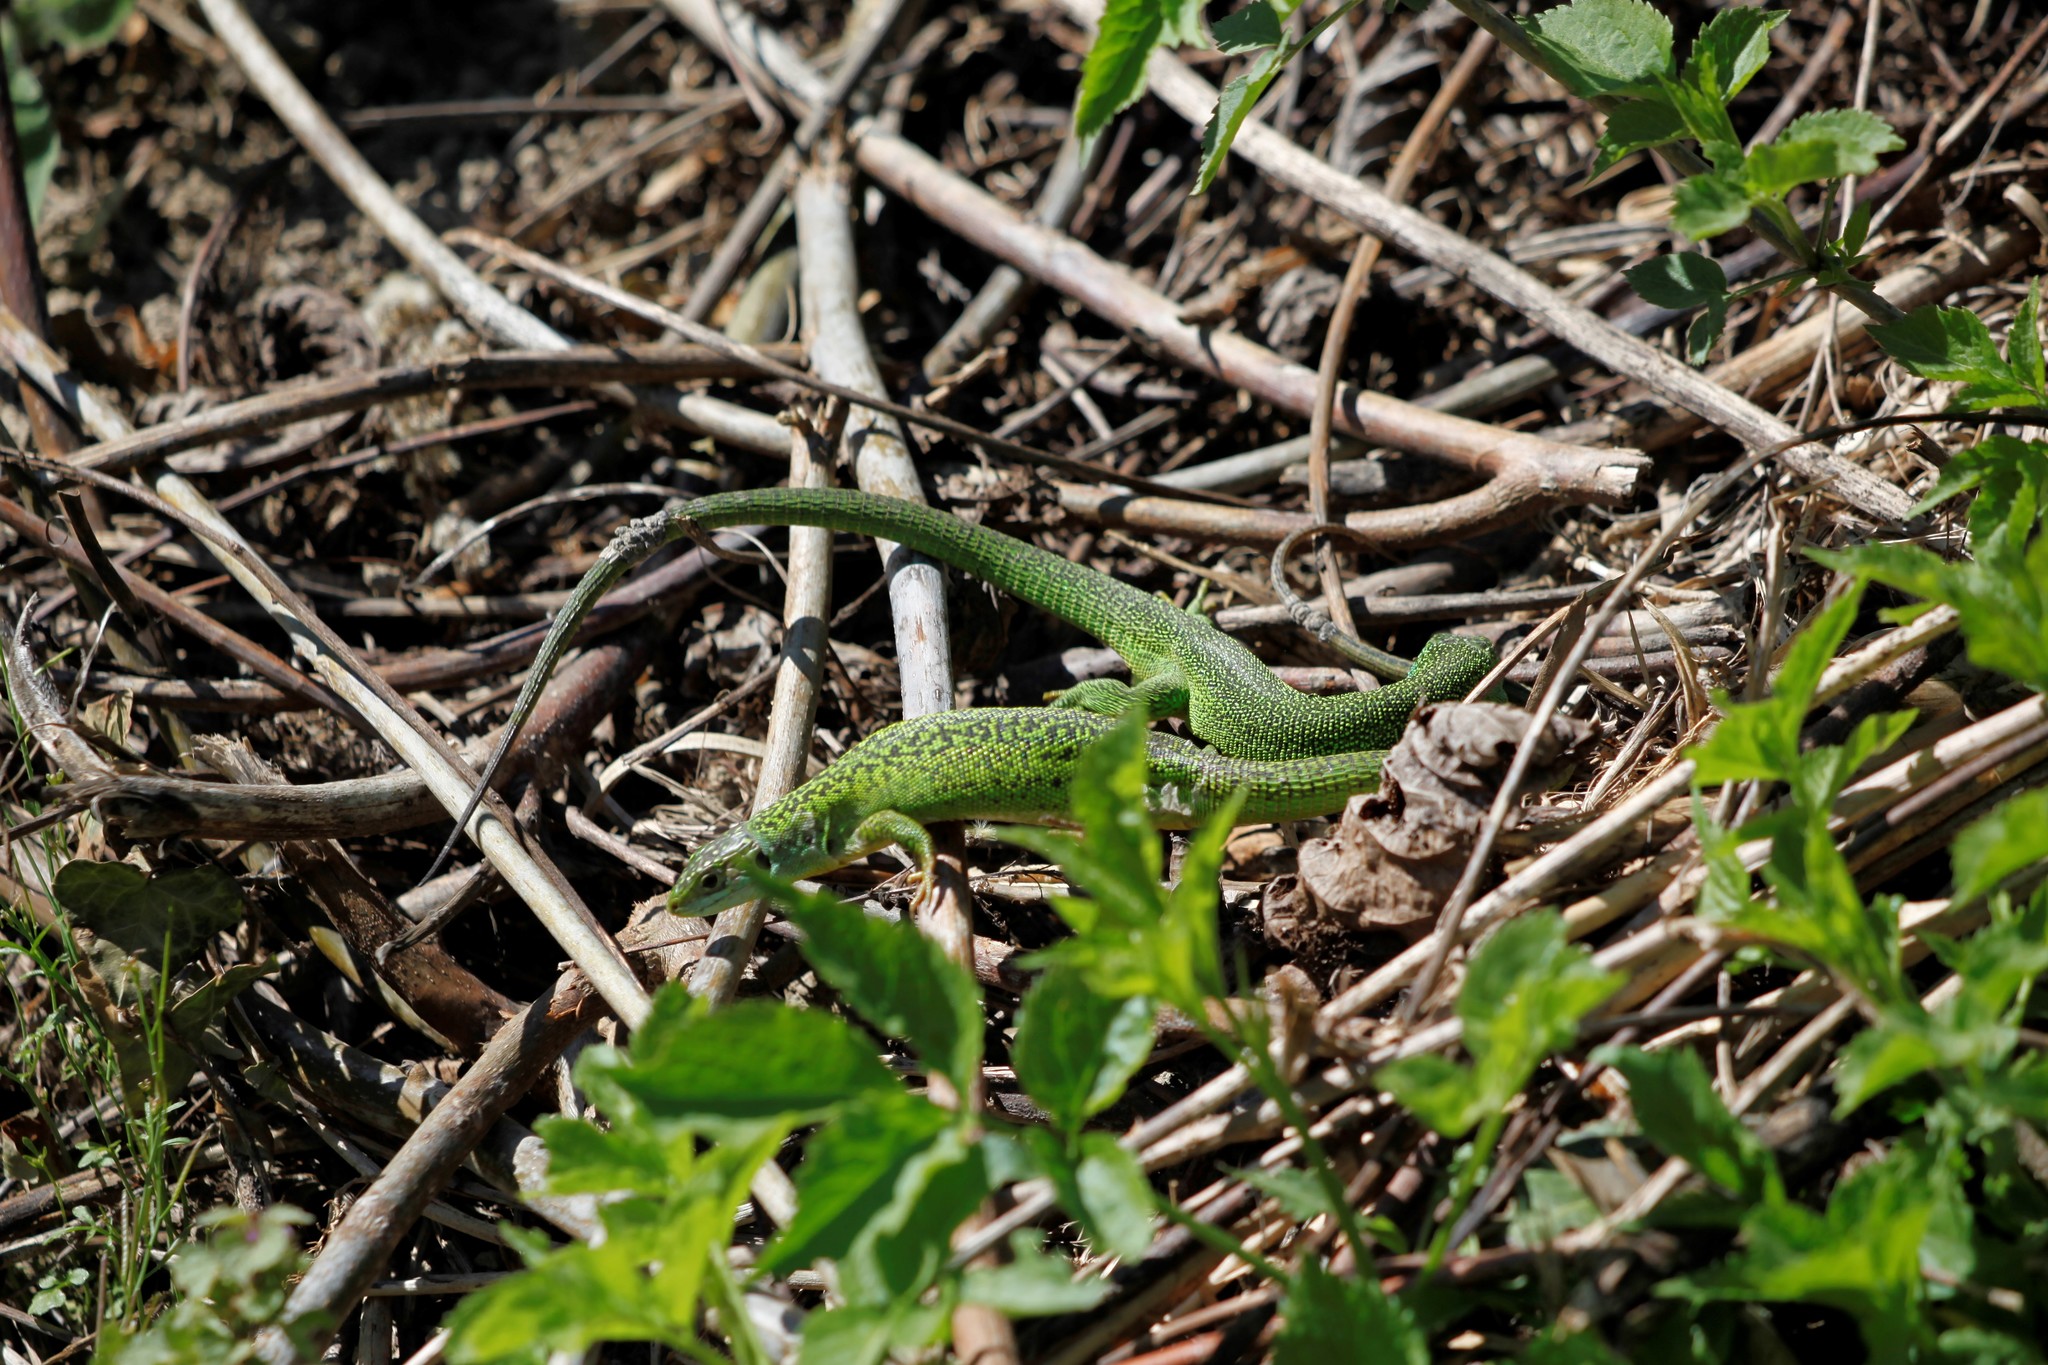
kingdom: Animalia
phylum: Chordata
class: Squamata
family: Lacertidae
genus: Lacerta
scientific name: Lacerta bilineata
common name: Western green lizard
